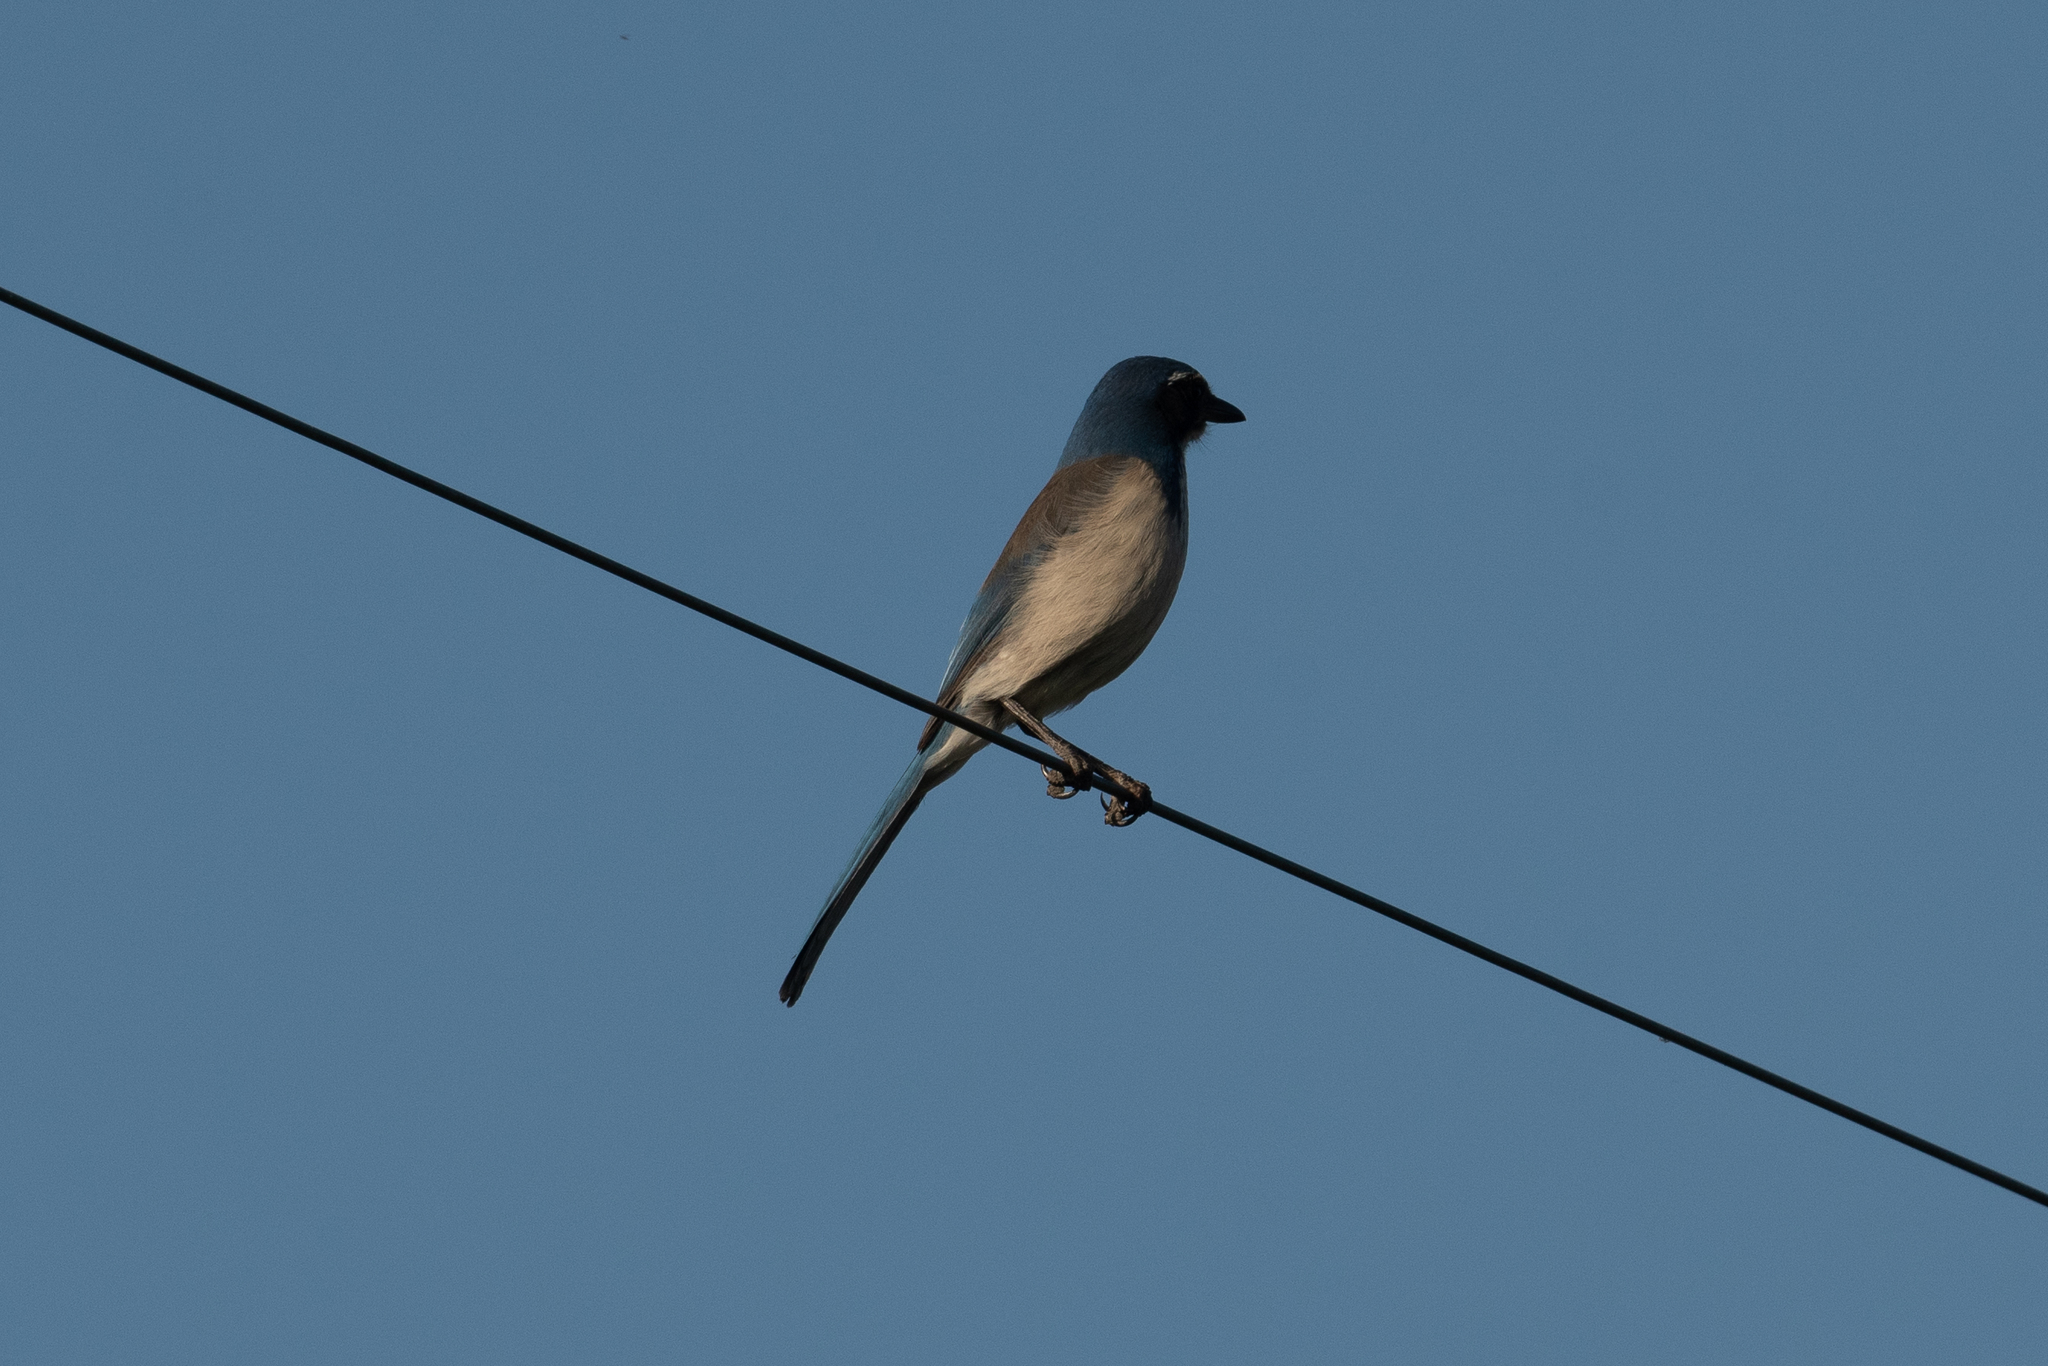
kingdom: Animalia
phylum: Chordata
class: Aves
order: Passeriformes
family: Corvidae
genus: Aphelocoma
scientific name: Aphelocoma californica
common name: California scrub-jay
